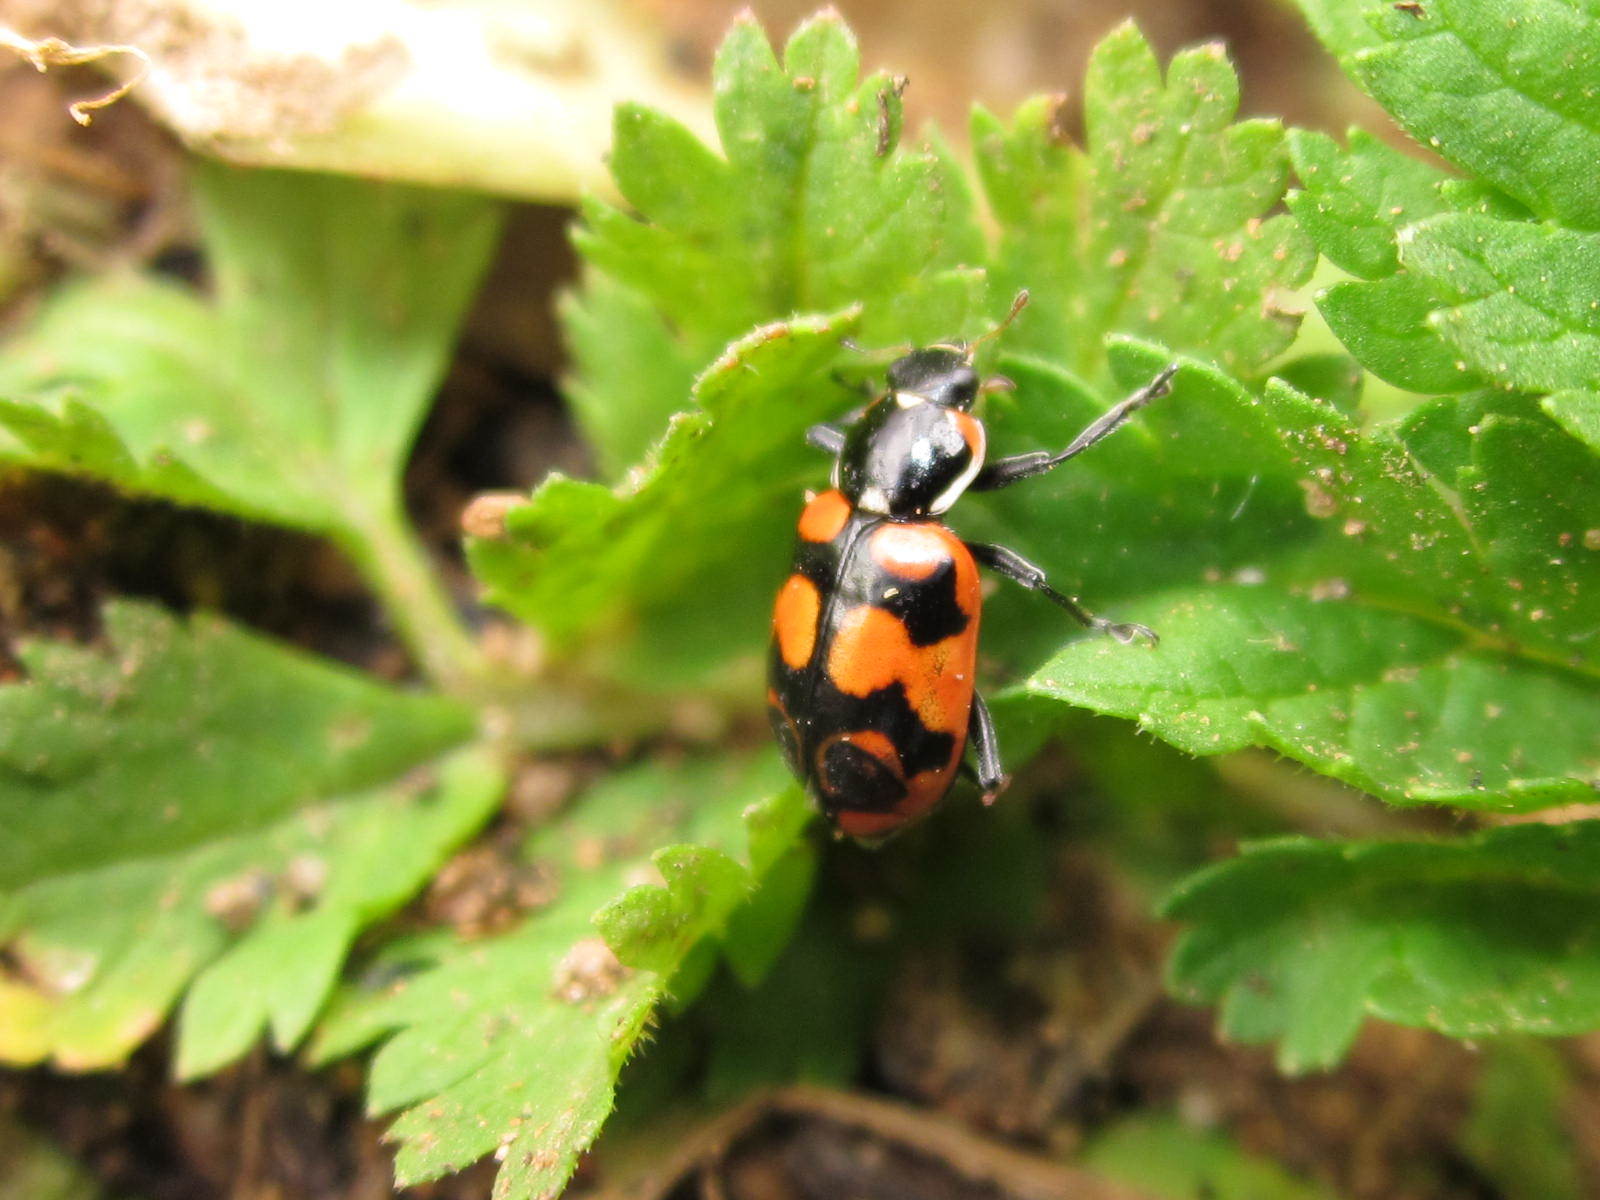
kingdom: Animalia
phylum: Arthropoda
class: Insecta
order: Coleoptera
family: Coccinellidae
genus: Eriopis
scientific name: Eriopis chilensis
